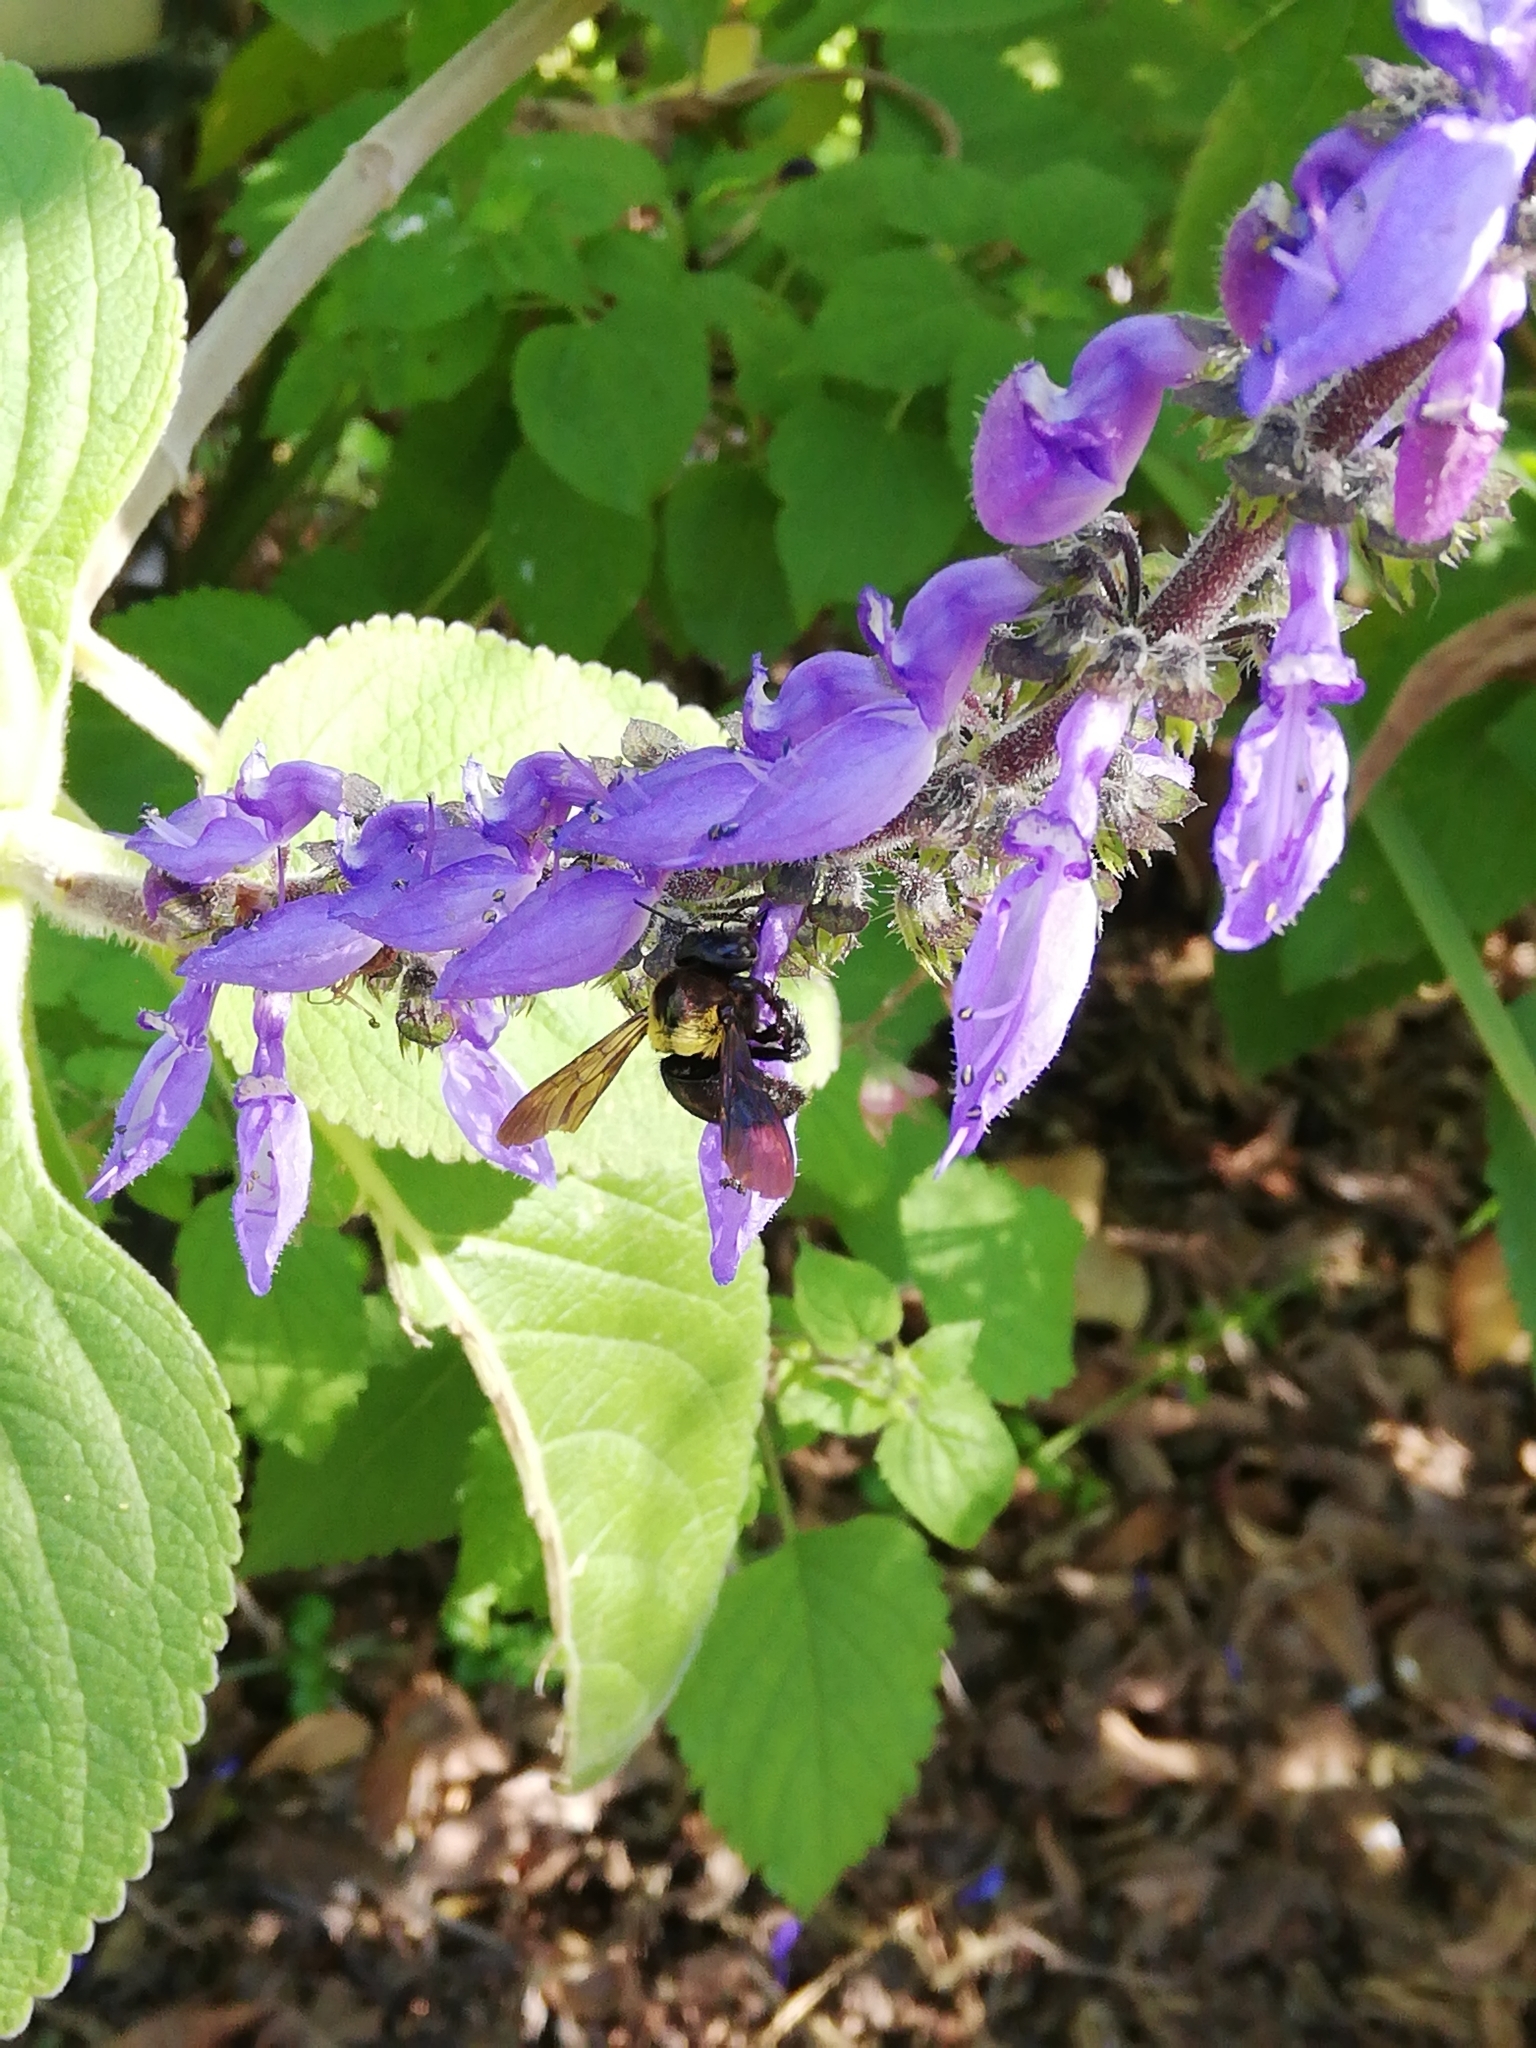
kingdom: Animalia
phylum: Arthropoda
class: Insecta
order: Hymenoptera
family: Apidae
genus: Xylocopa
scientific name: Xylocopa flavicollis
